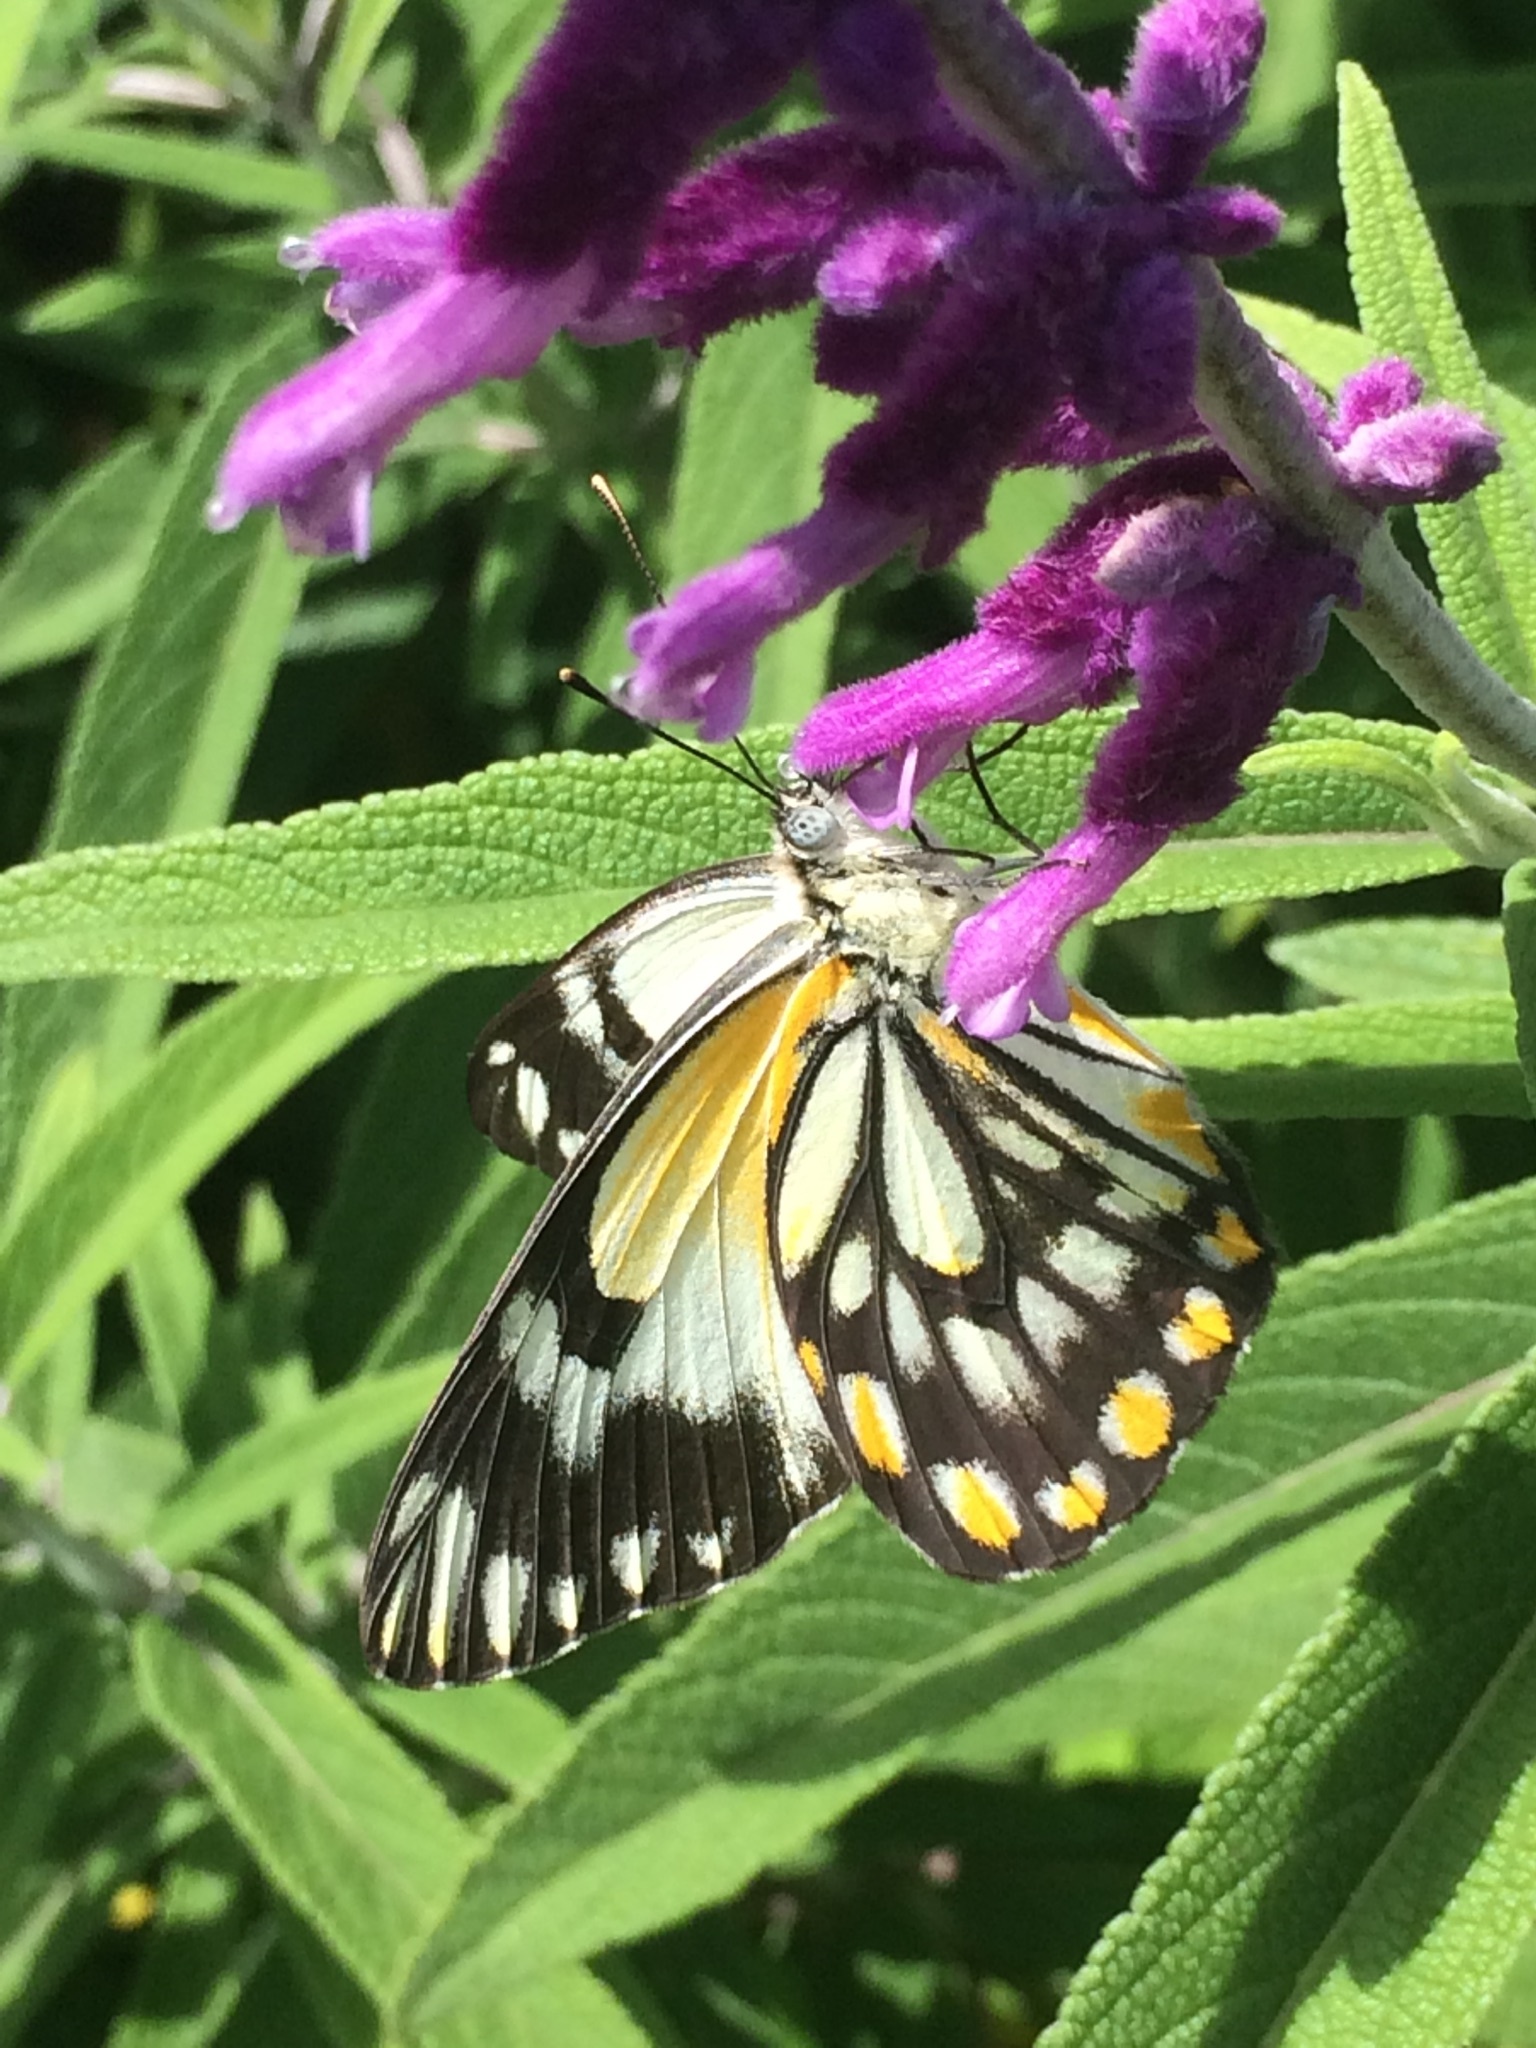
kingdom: Animalia
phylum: Arthropoda
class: Insecta
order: Lepidoptera
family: Pieridae
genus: Belenois
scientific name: Belenois java
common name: Caper white
